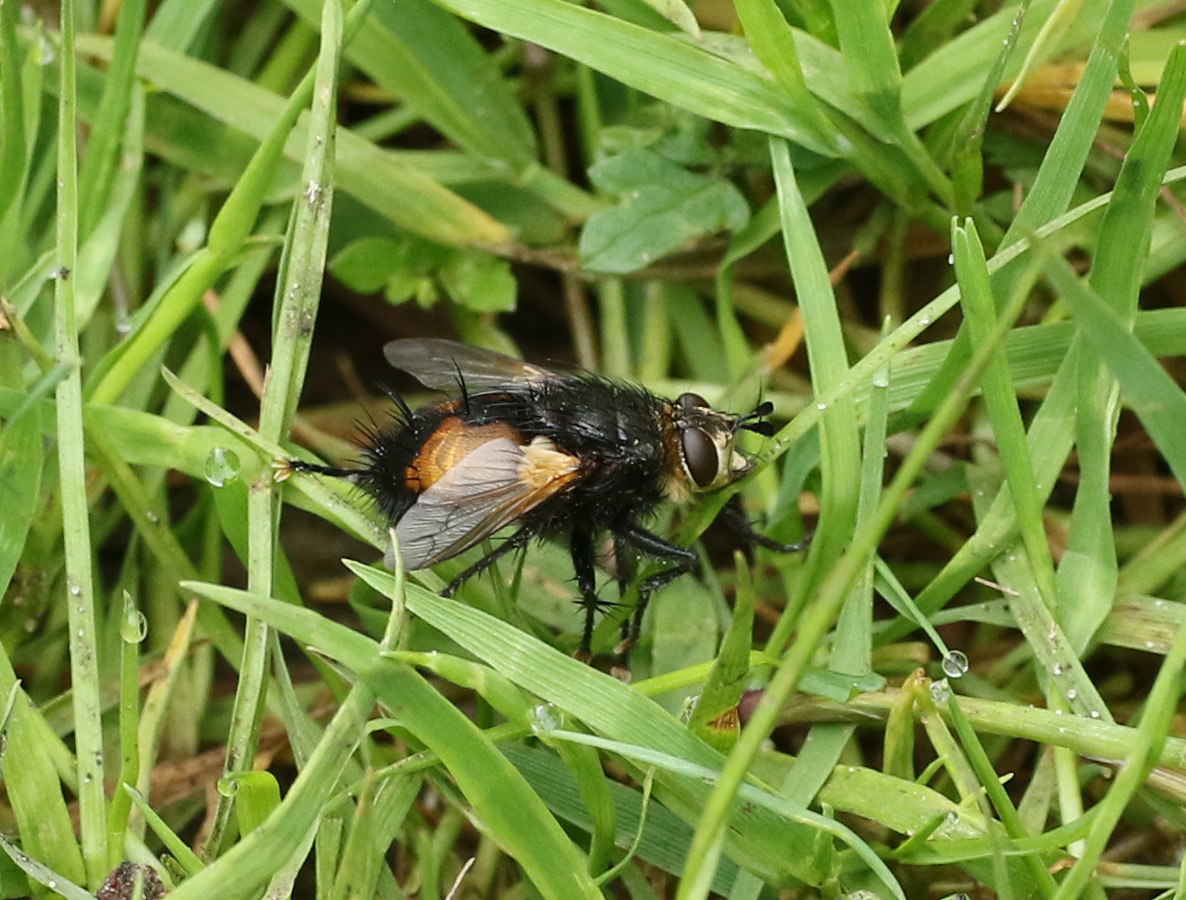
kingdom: Animalia
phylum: Arthropoda
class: Insecta
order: Diptera
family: Tachinidae
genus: Nowickia
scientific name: Nowickia ferox
